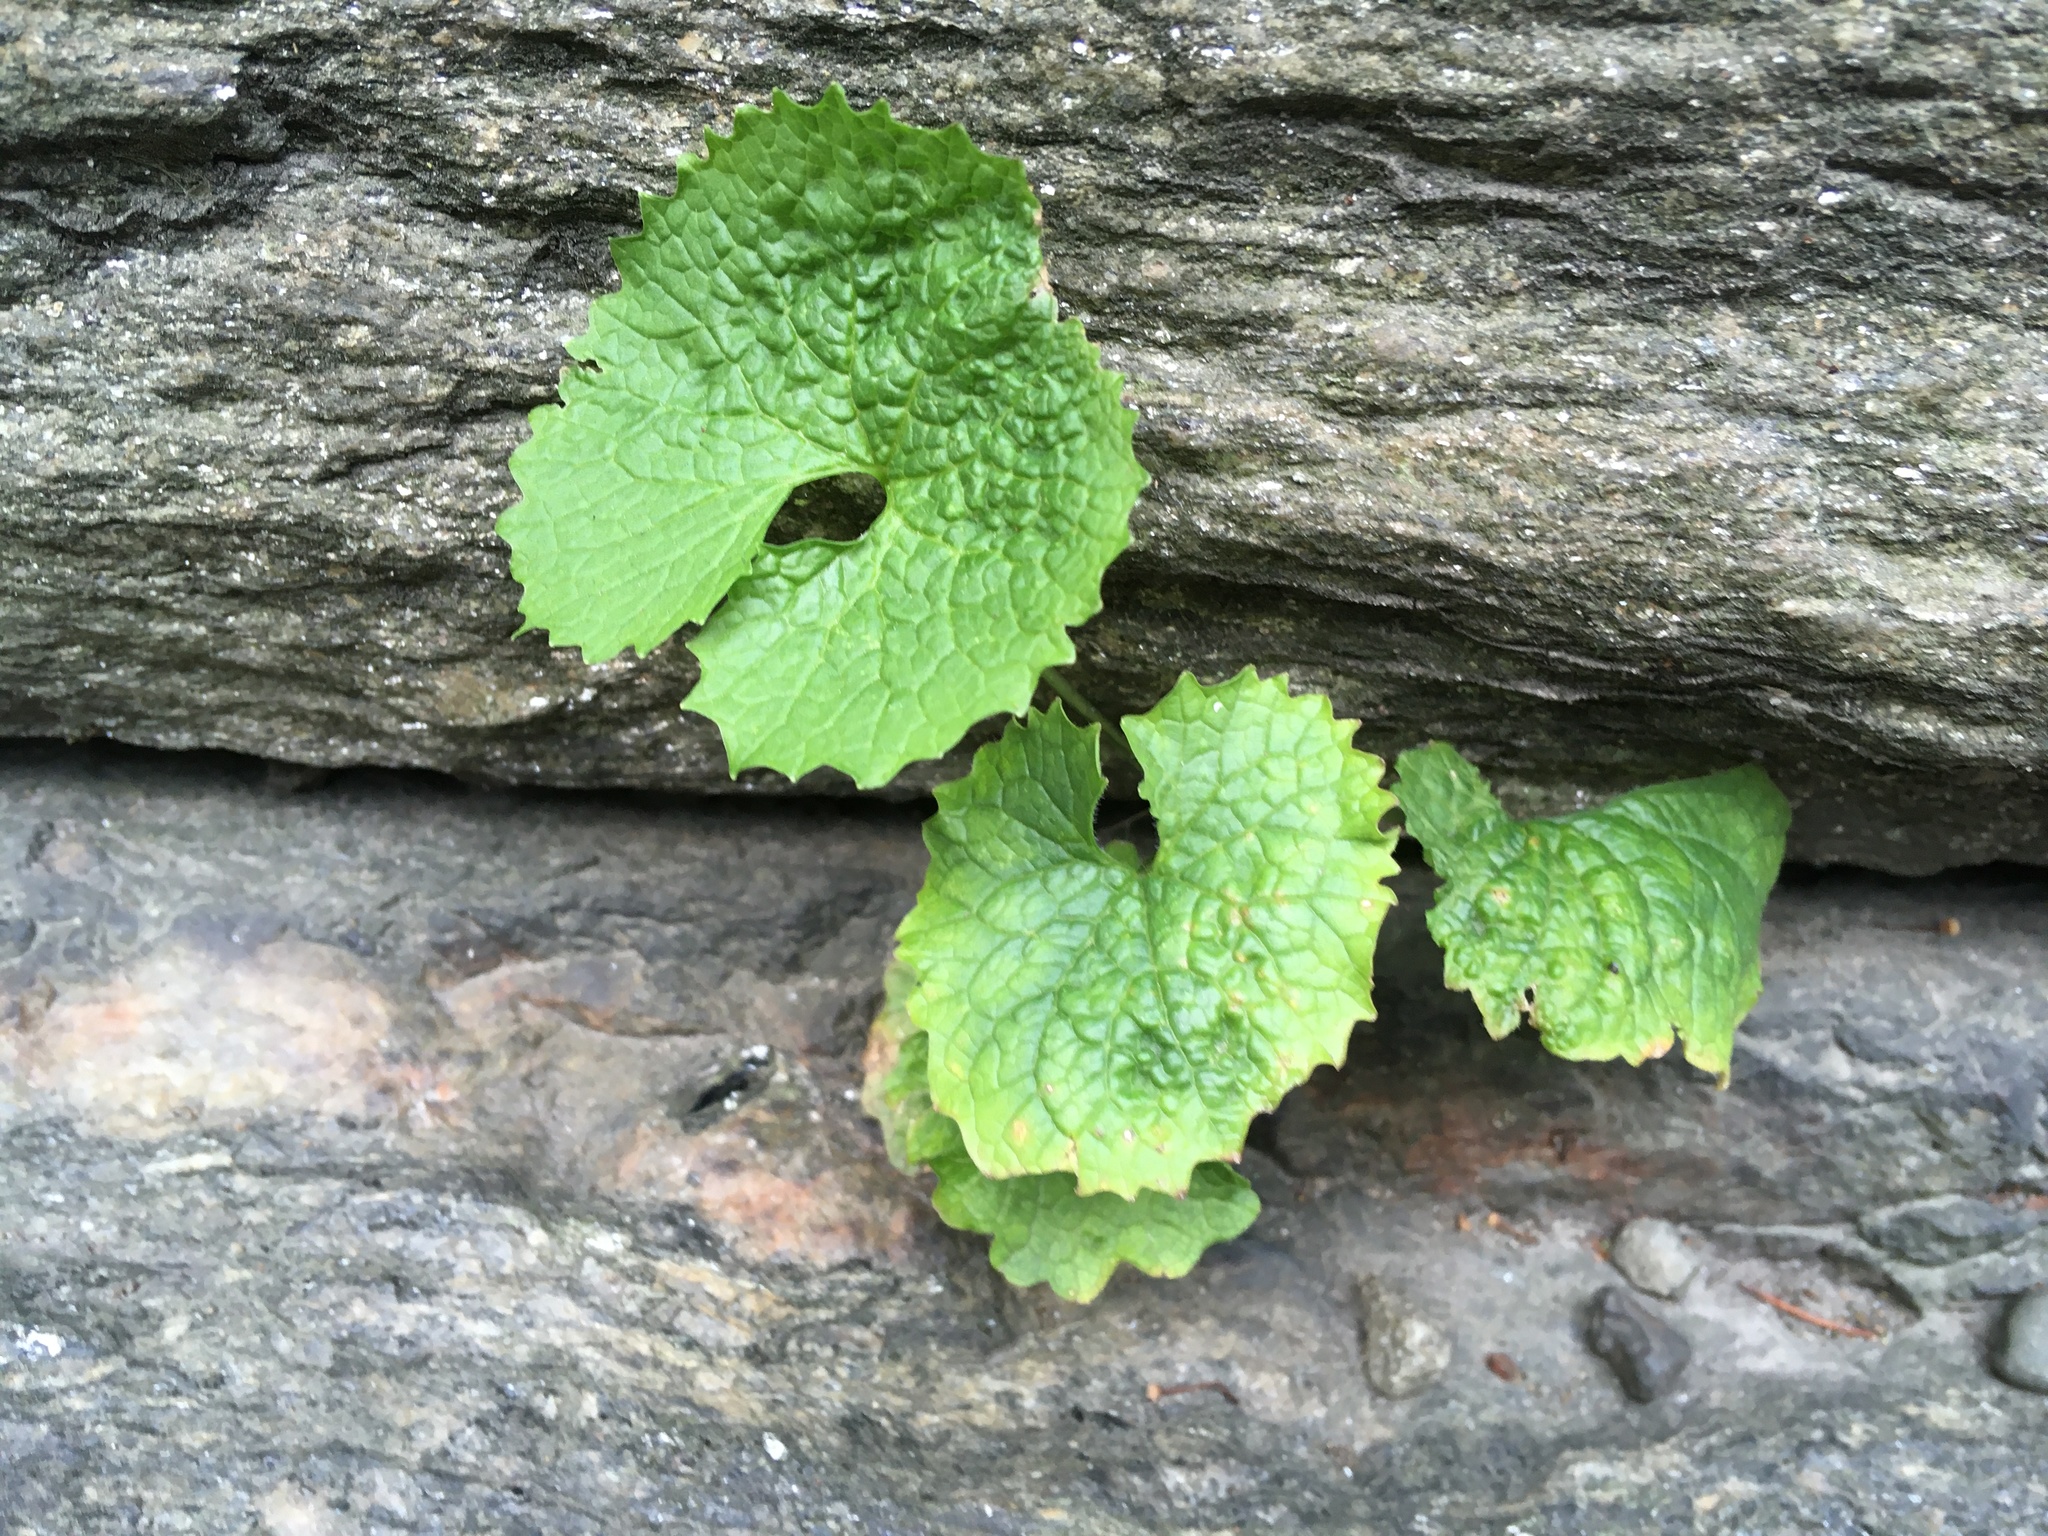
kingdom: Plantae
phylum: Tracheophyta
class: Magnoliopsida
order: Brassicales
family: Brassicaceae
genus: Alliaria
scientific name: Alliaria petiolata
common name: Garlic mustard
